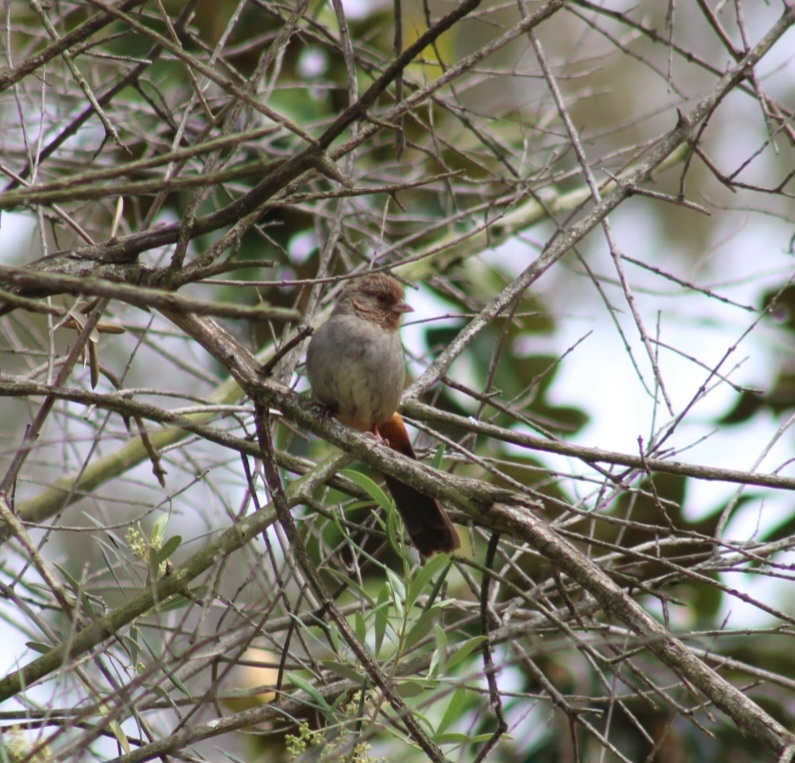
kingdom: Animalia
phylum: Chordata
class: Aves
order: Passeriformes
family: Passerellidae
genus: Melozone
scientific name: Melozone crissalis
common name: California towhee
